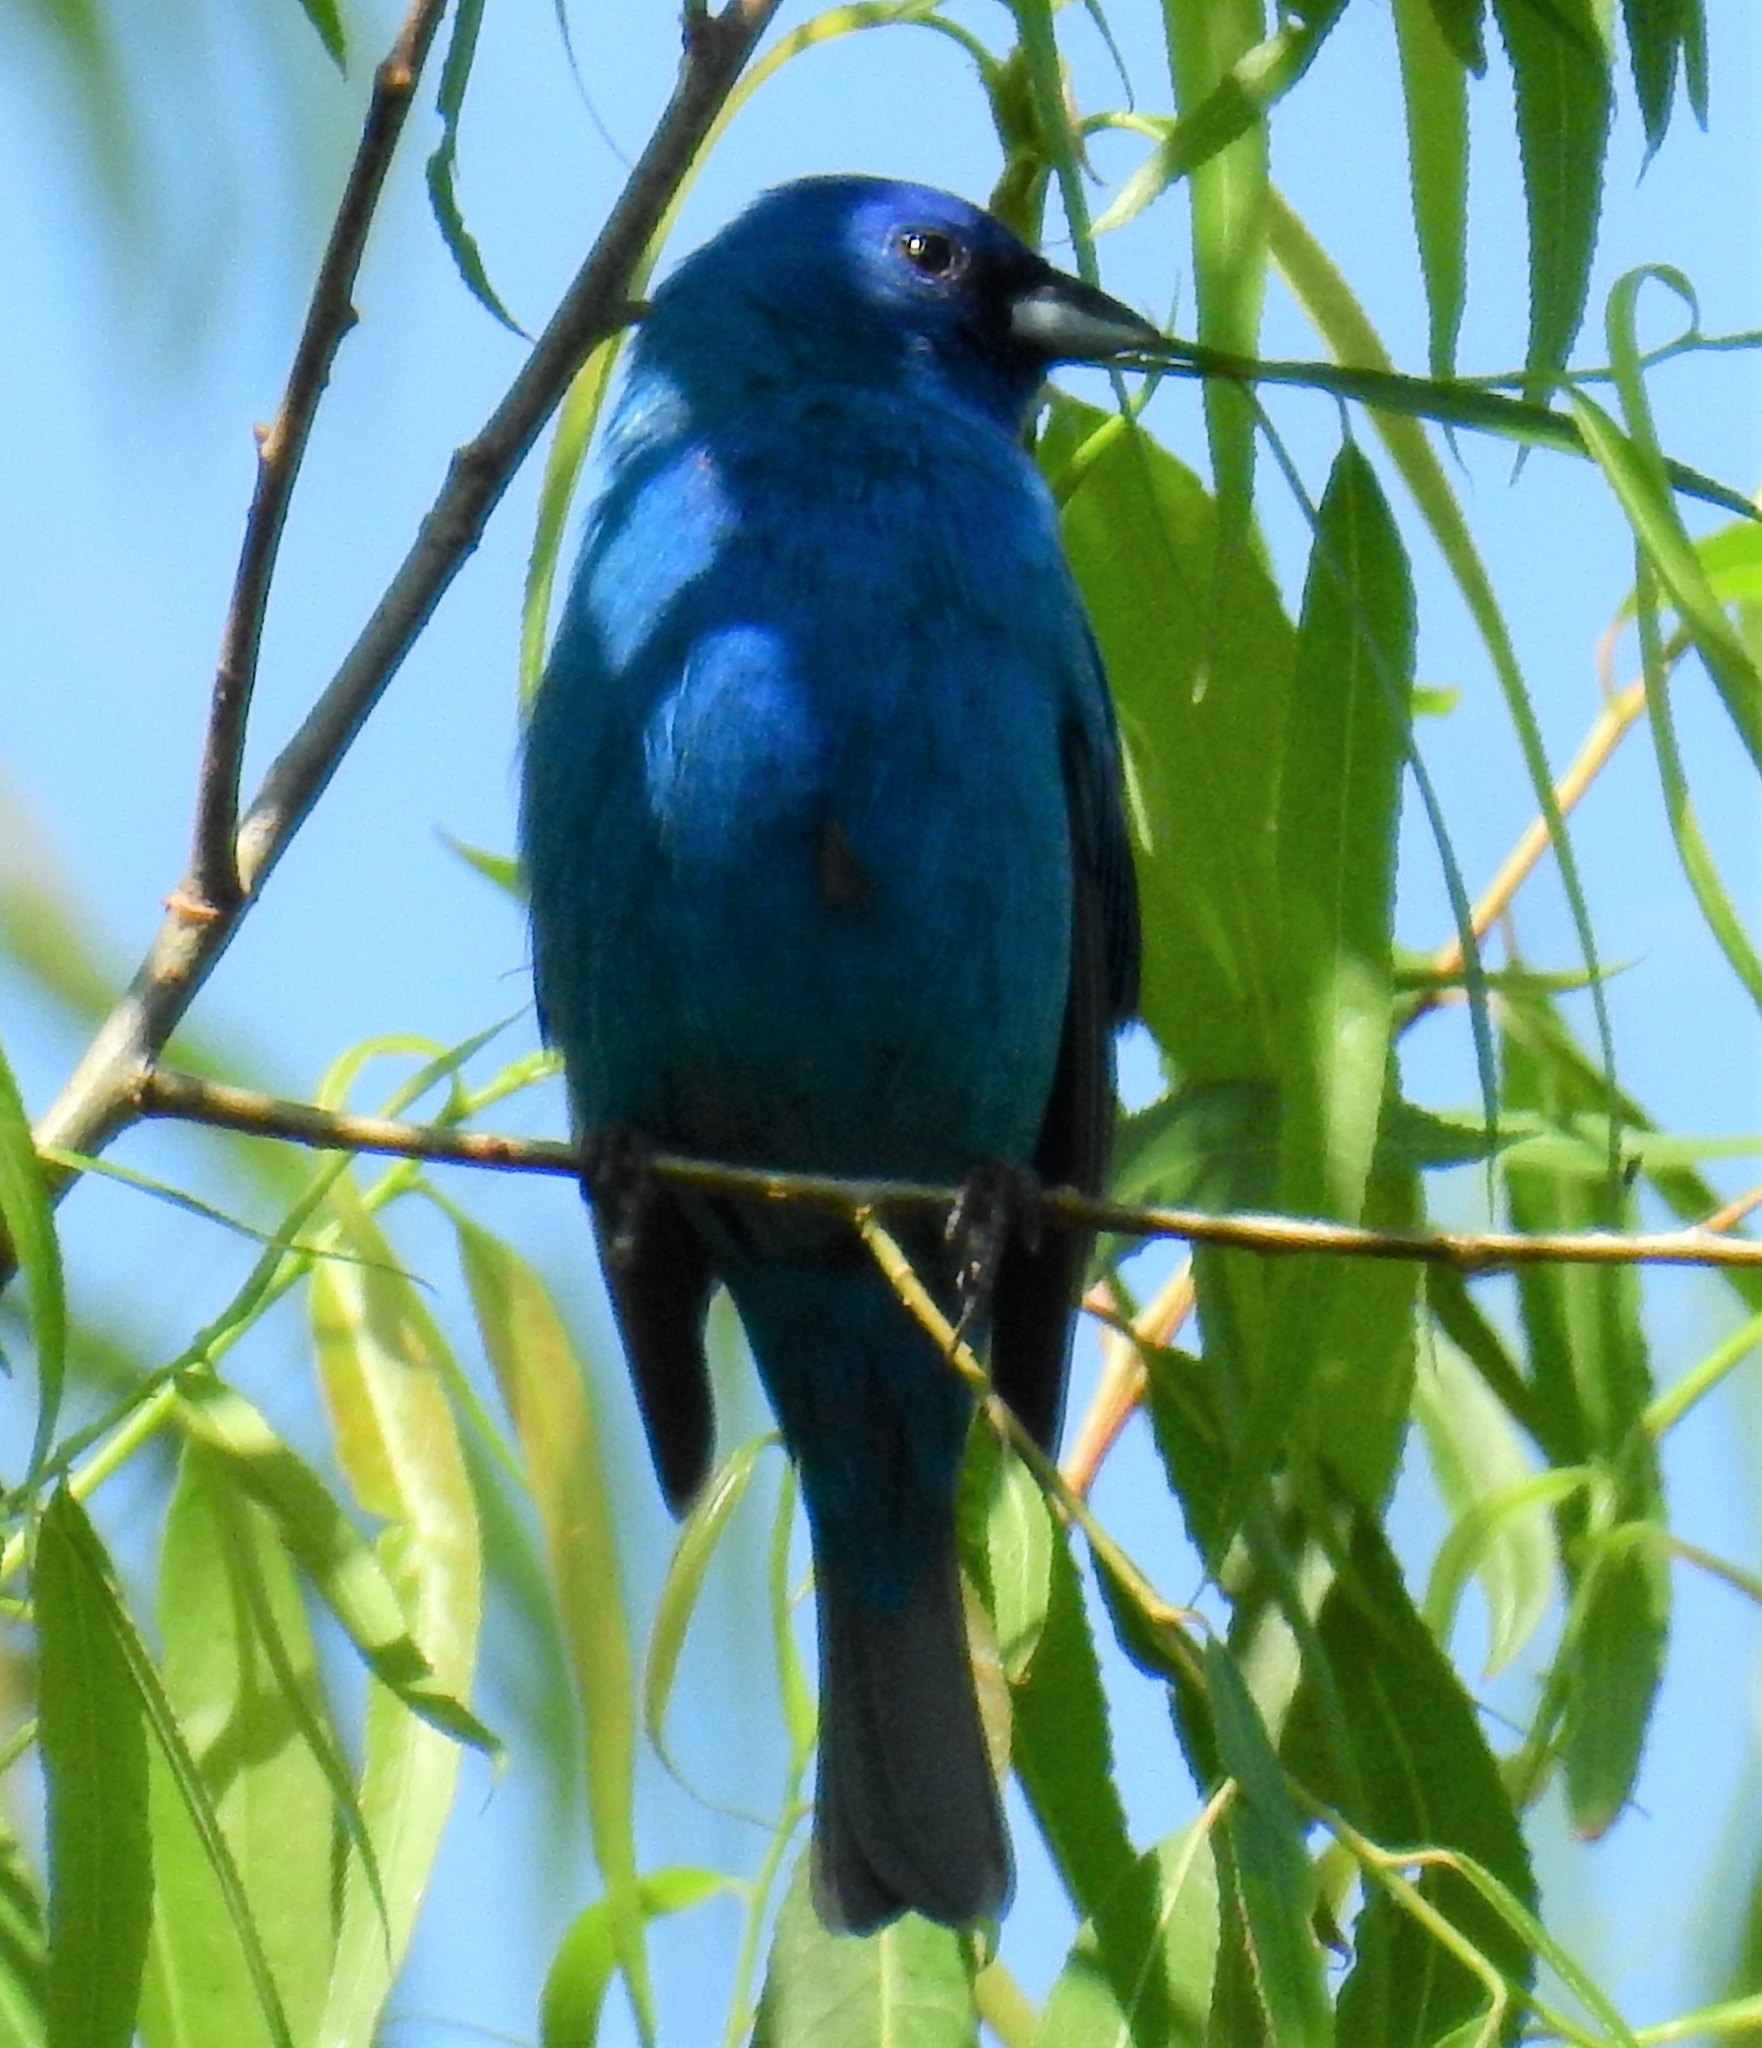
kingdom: Animalia
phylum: Chordata
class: Aves
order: Passeriformes
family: Cardinalidae
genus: Passerina
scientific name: Passerina cyanea
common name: Indigo bunting
